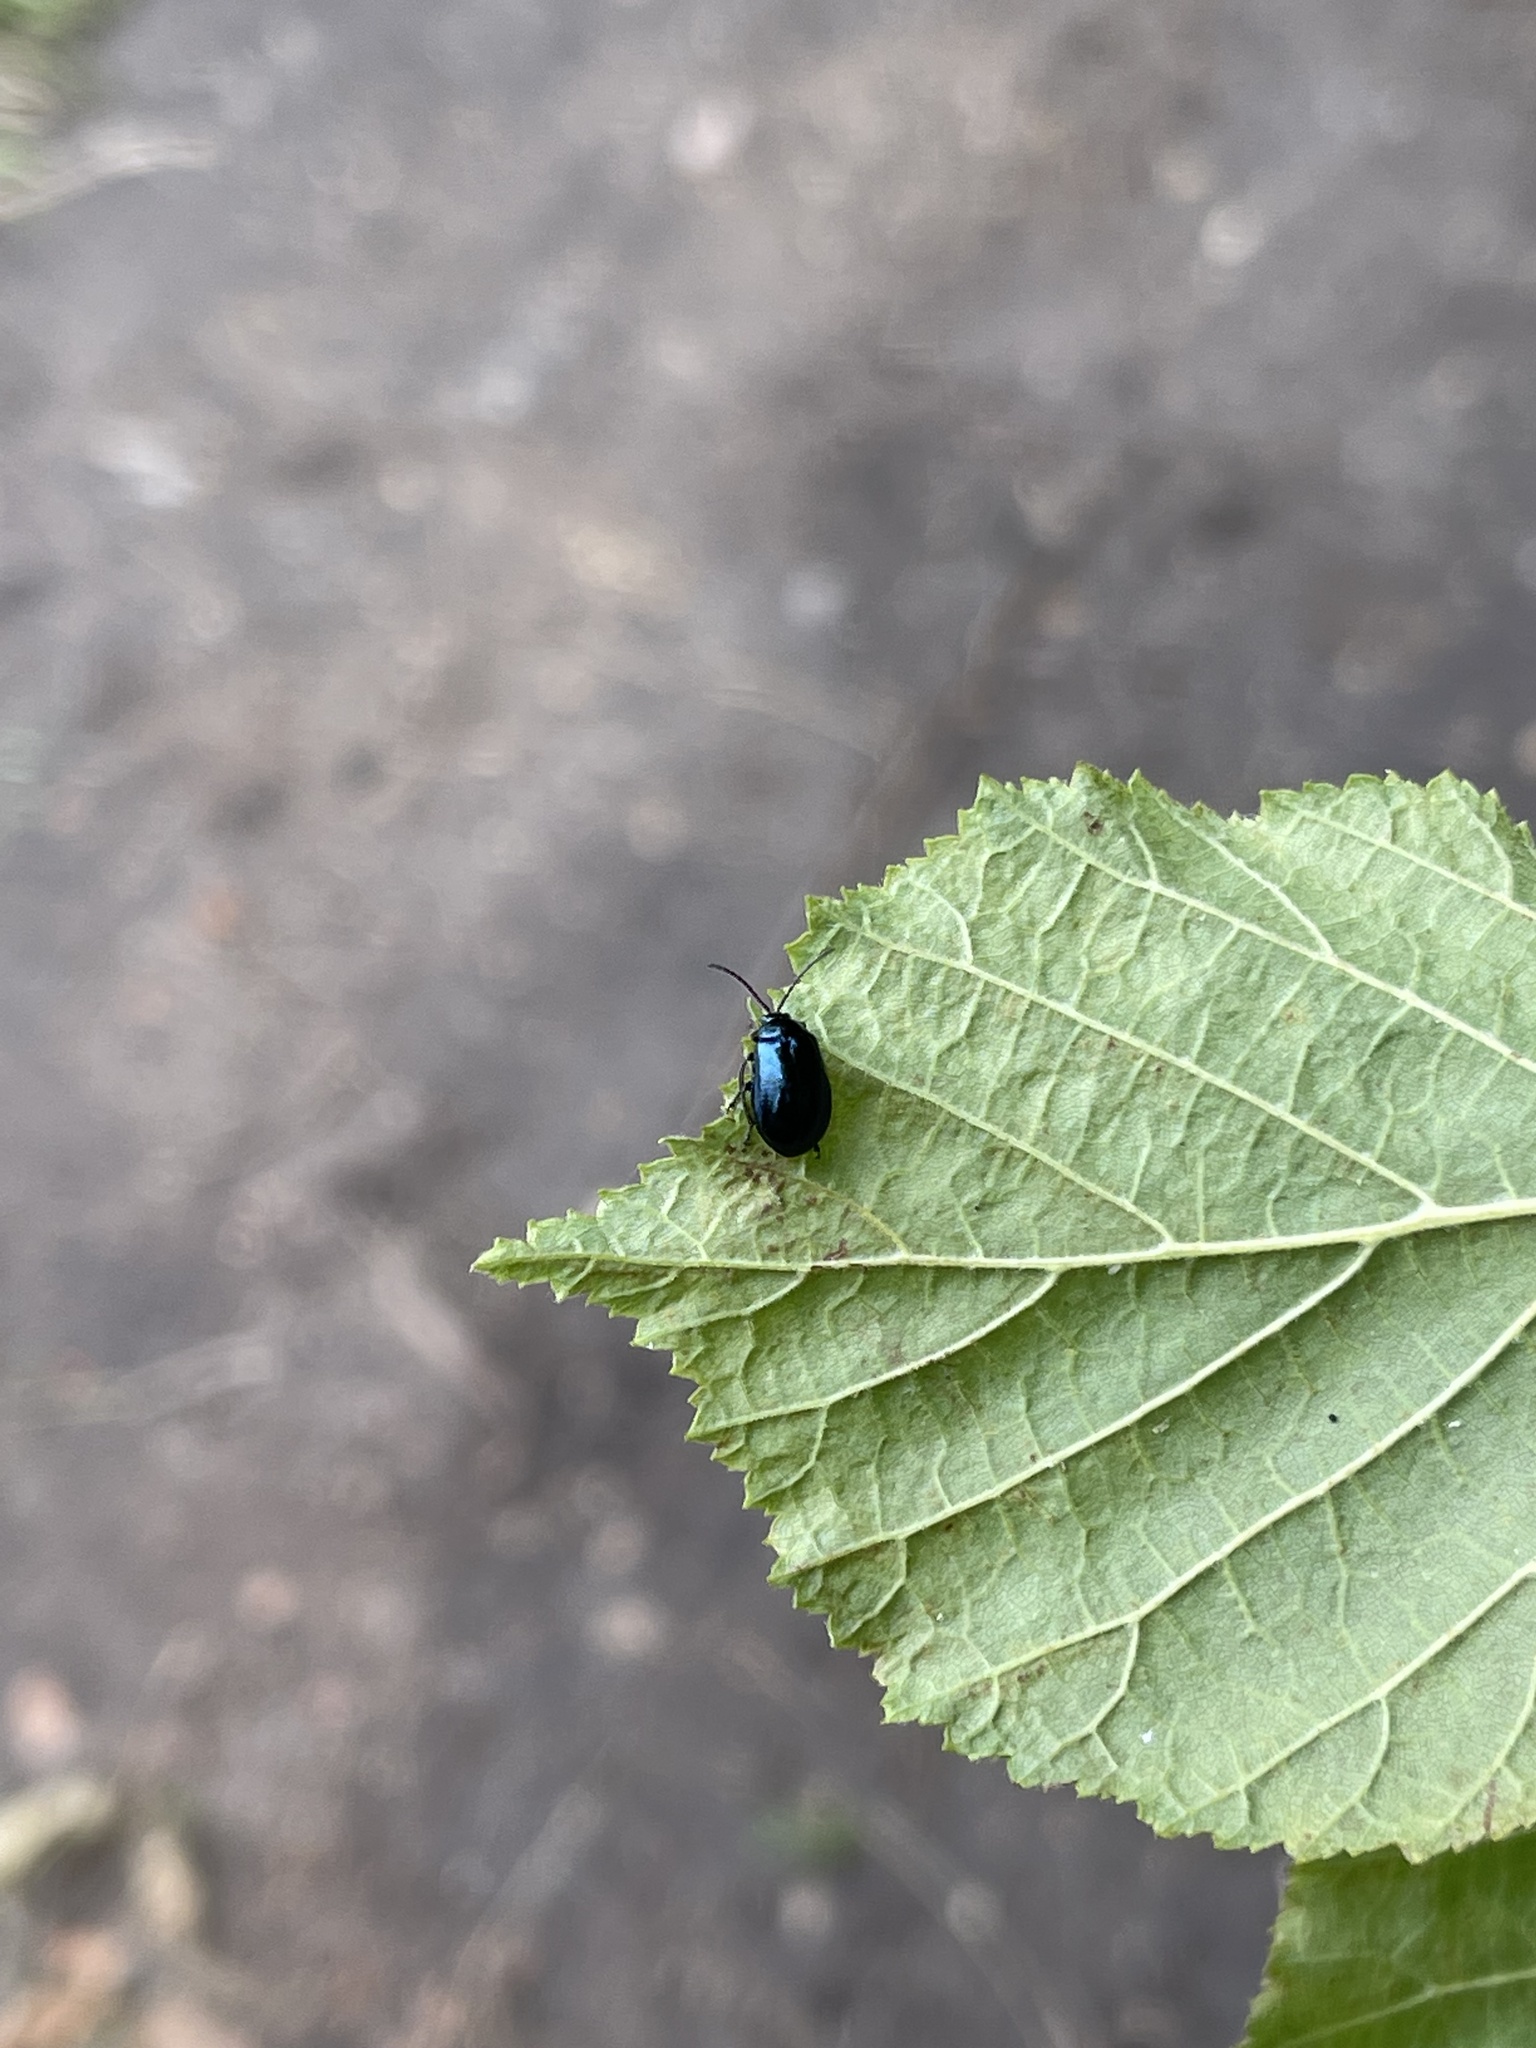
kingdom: Animalia
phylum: Arthropoda
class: Insecta
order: Coleoptera
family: Chrysomelidae
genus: Agelastica
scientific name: Agelastica alni
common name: Alder leaf beetle
